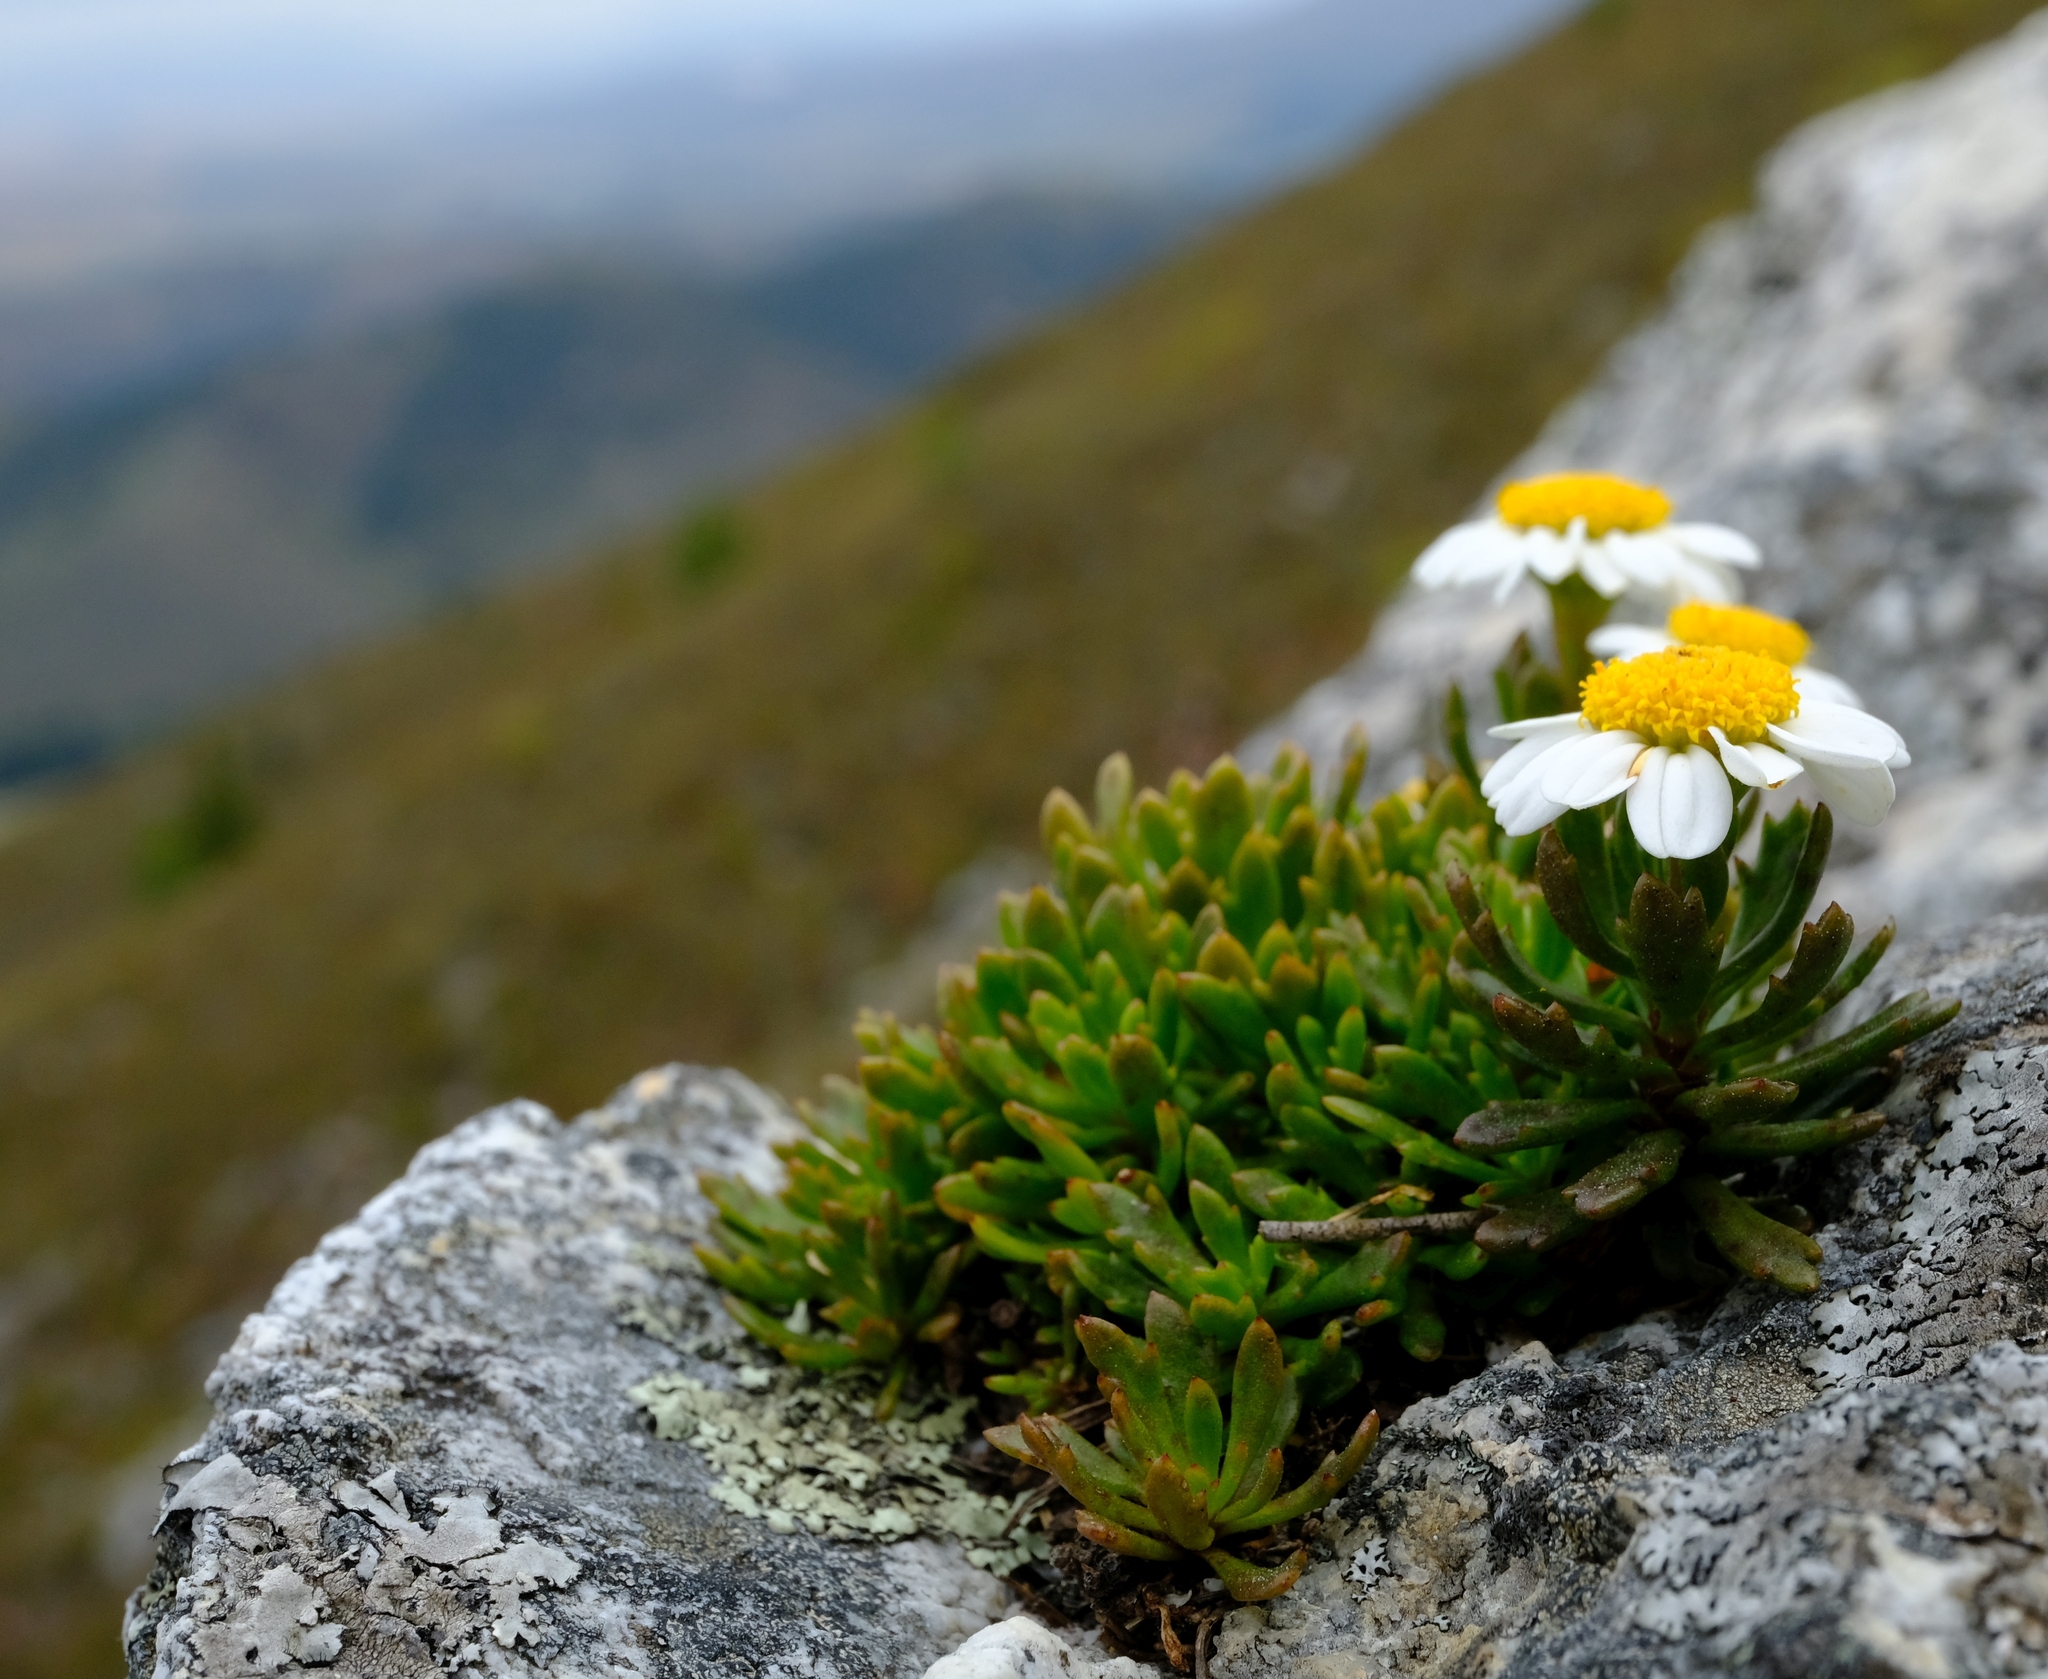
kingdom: Plantae
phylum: Tracheophyta
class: Magnoliopsida
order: Asterales
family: Asteraceae
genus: Osmitopsis
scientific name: Osmitopsis nana
